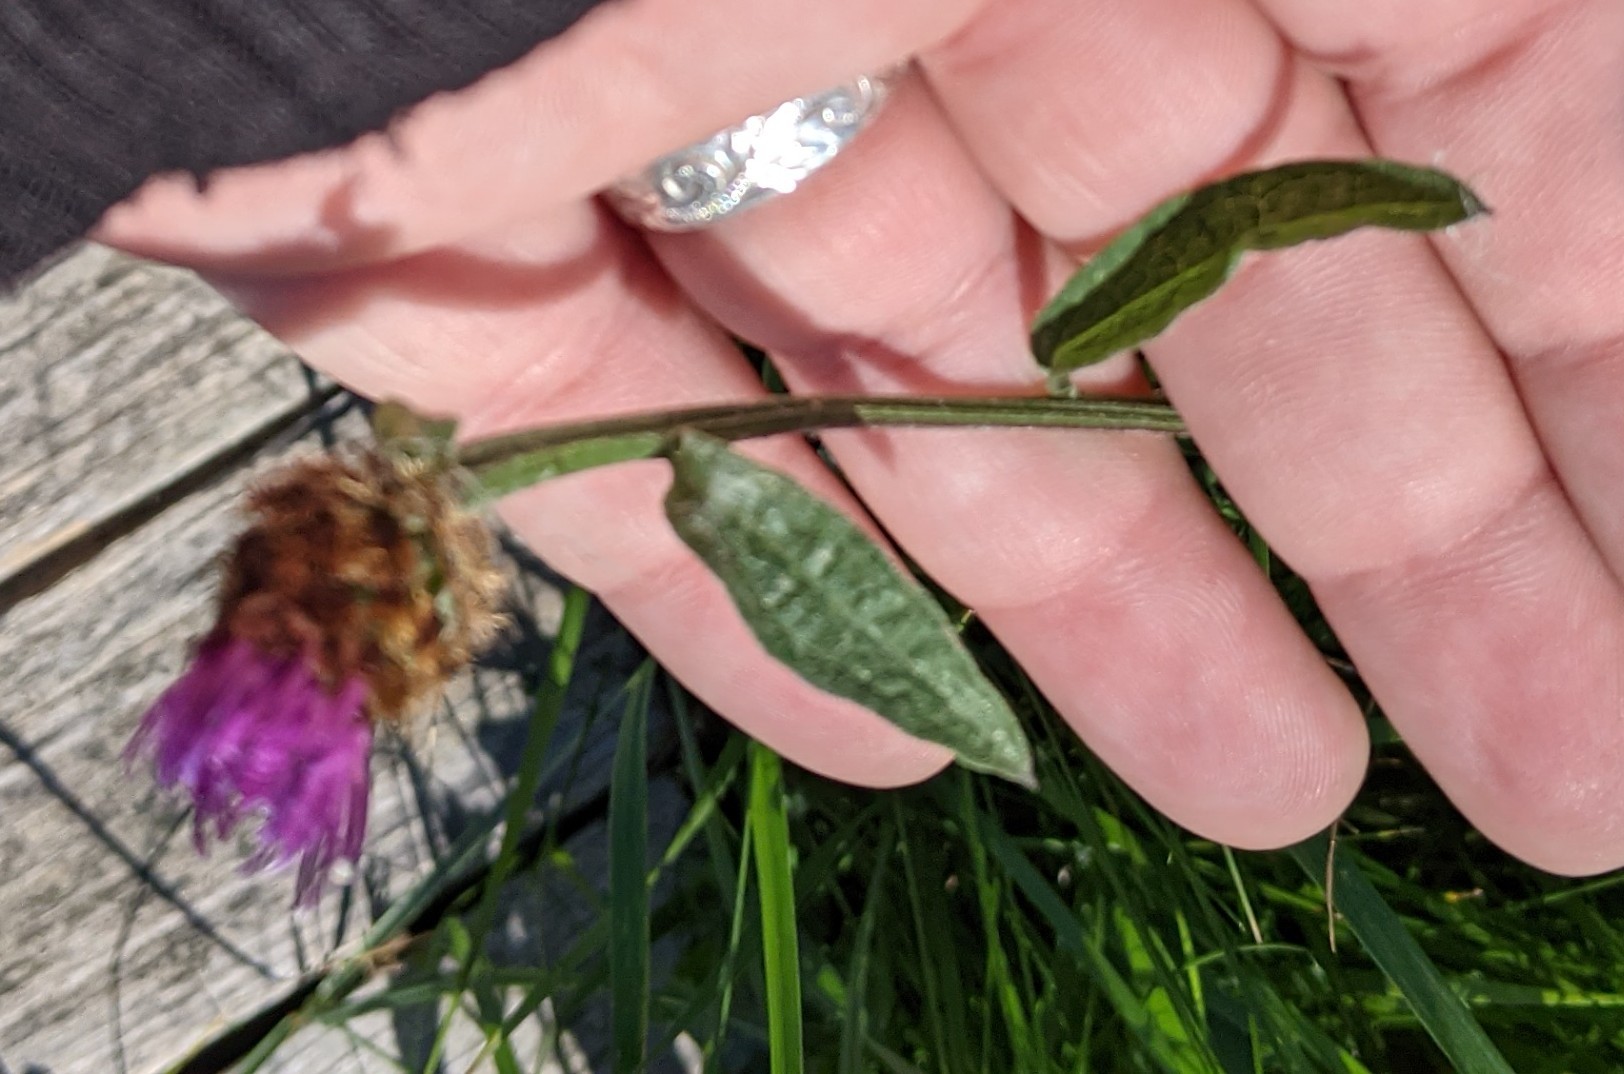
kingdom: Plantae
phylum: Tracheophyta
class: Magnoliopsida
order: Asterales
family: Asteraceae
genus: Centaurea
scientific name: Centaurea nigra
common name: Lesser knapweed
